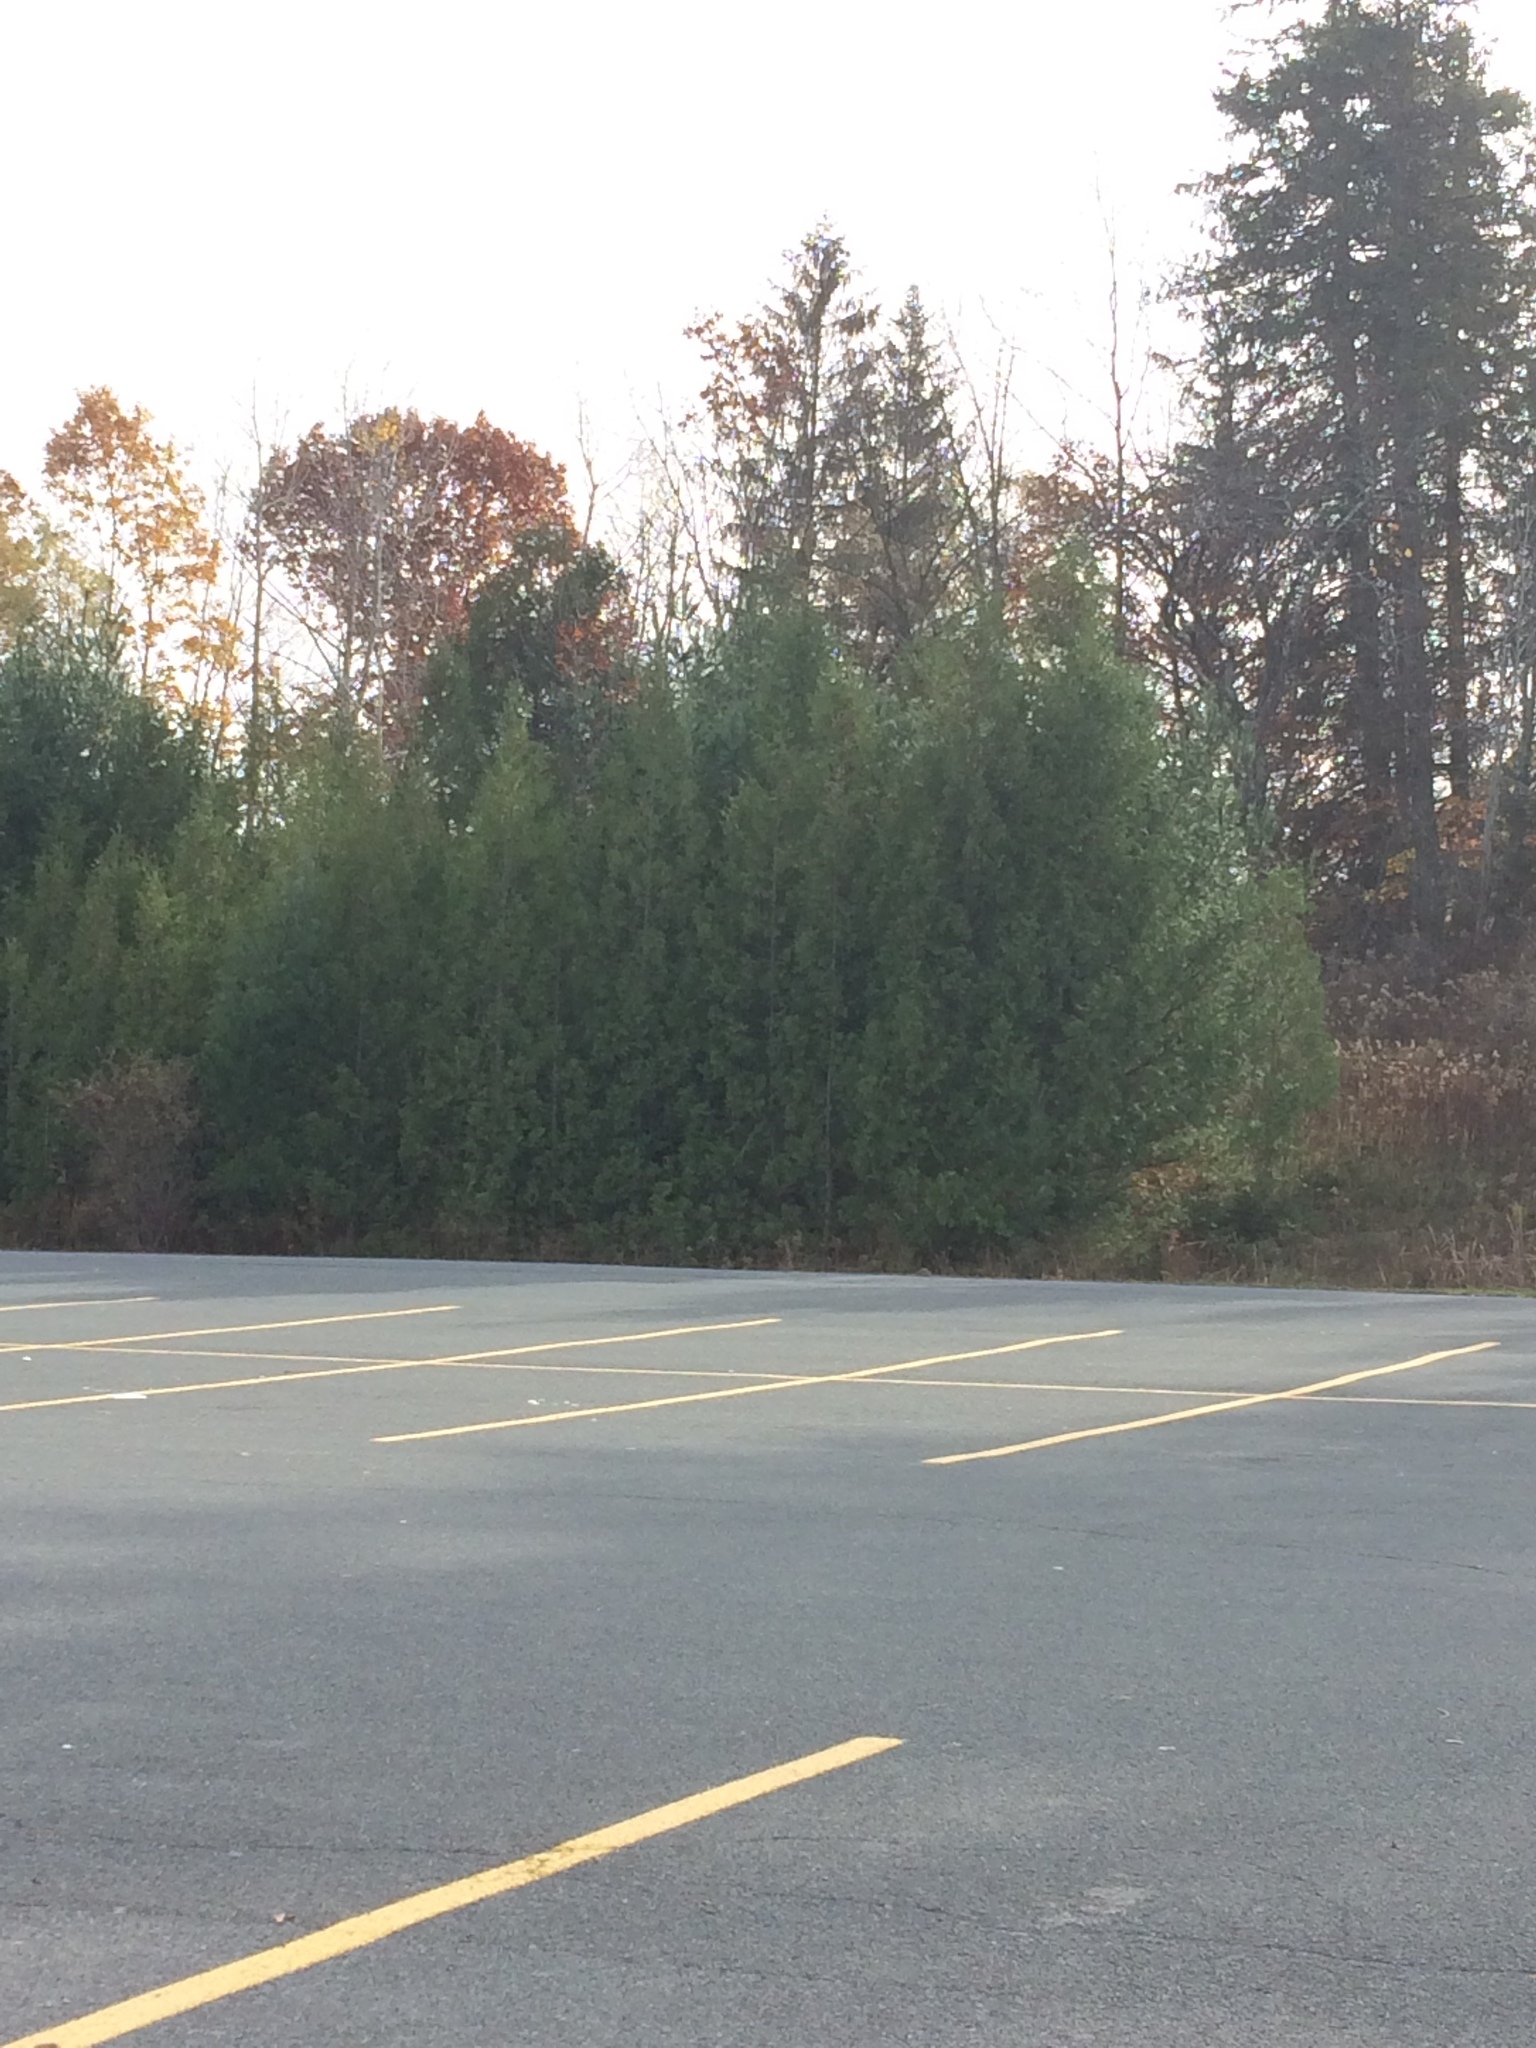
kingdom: Plantae
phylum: Tracheophyta
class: Pinopsida
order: Pinales
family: Cupressaceae
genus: Thuja
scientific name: Thuja occidentalis
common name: Northern white-cedar
